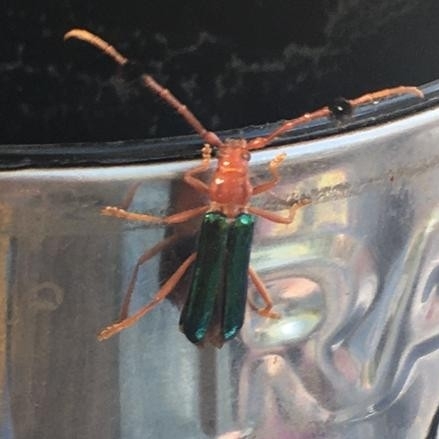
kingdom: Animalia
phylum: Arthropoda
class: Insecta
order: Coleoptera
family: Cerambycidae
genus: Compsocerus
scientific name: Compsocerus violaceus
